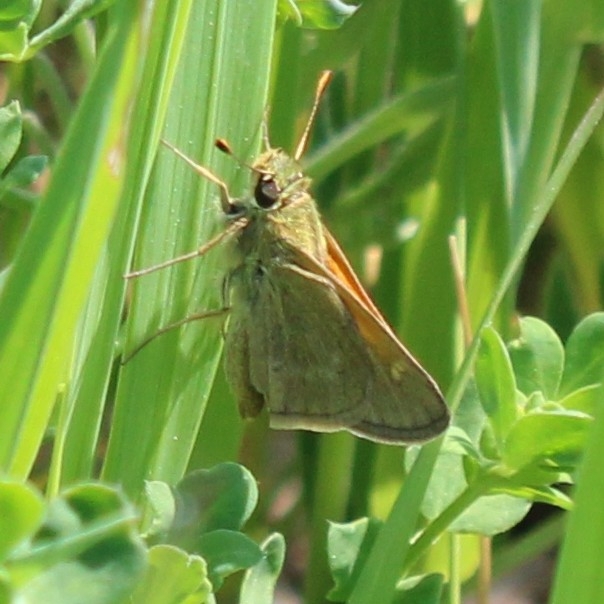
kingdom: Animalia
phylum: Arthropoda
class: Insecta
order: Lepidoptera
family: Hesperiidae
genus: Polites
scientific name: Polites themistocles
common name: Tawny-edged skipper
